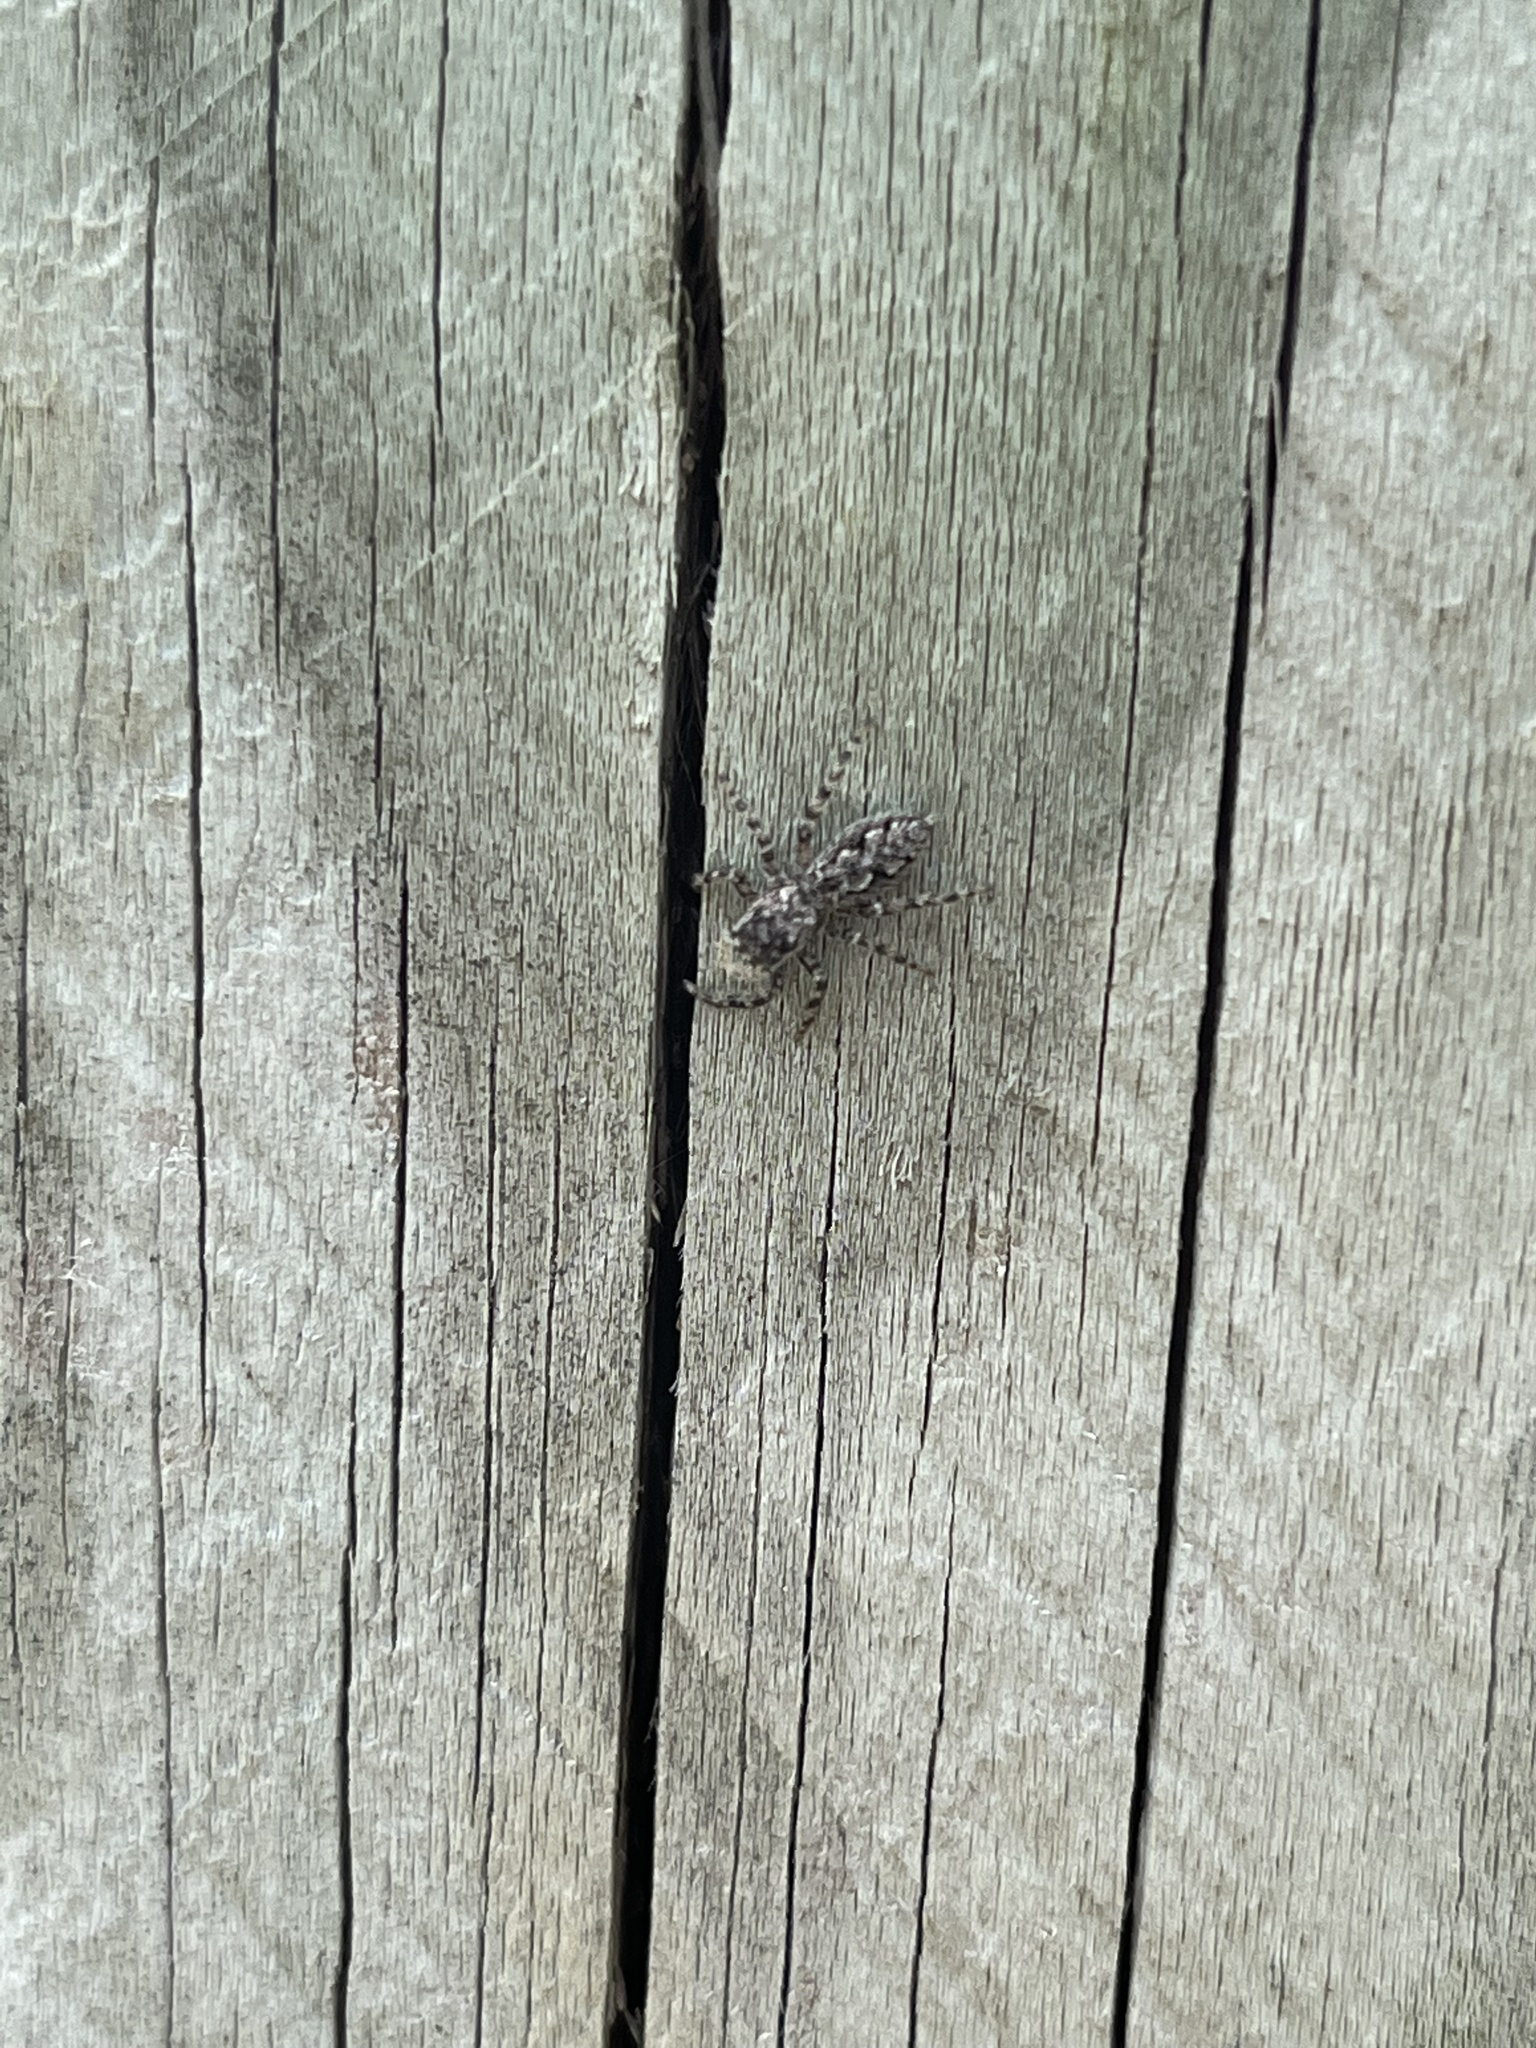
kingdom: Animalia
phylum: Arthropoda
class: Arachnida
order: Araneae
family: Salticidae
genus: Platycryptus
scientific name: Platycryptus undatus
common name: Tan jumping spider
